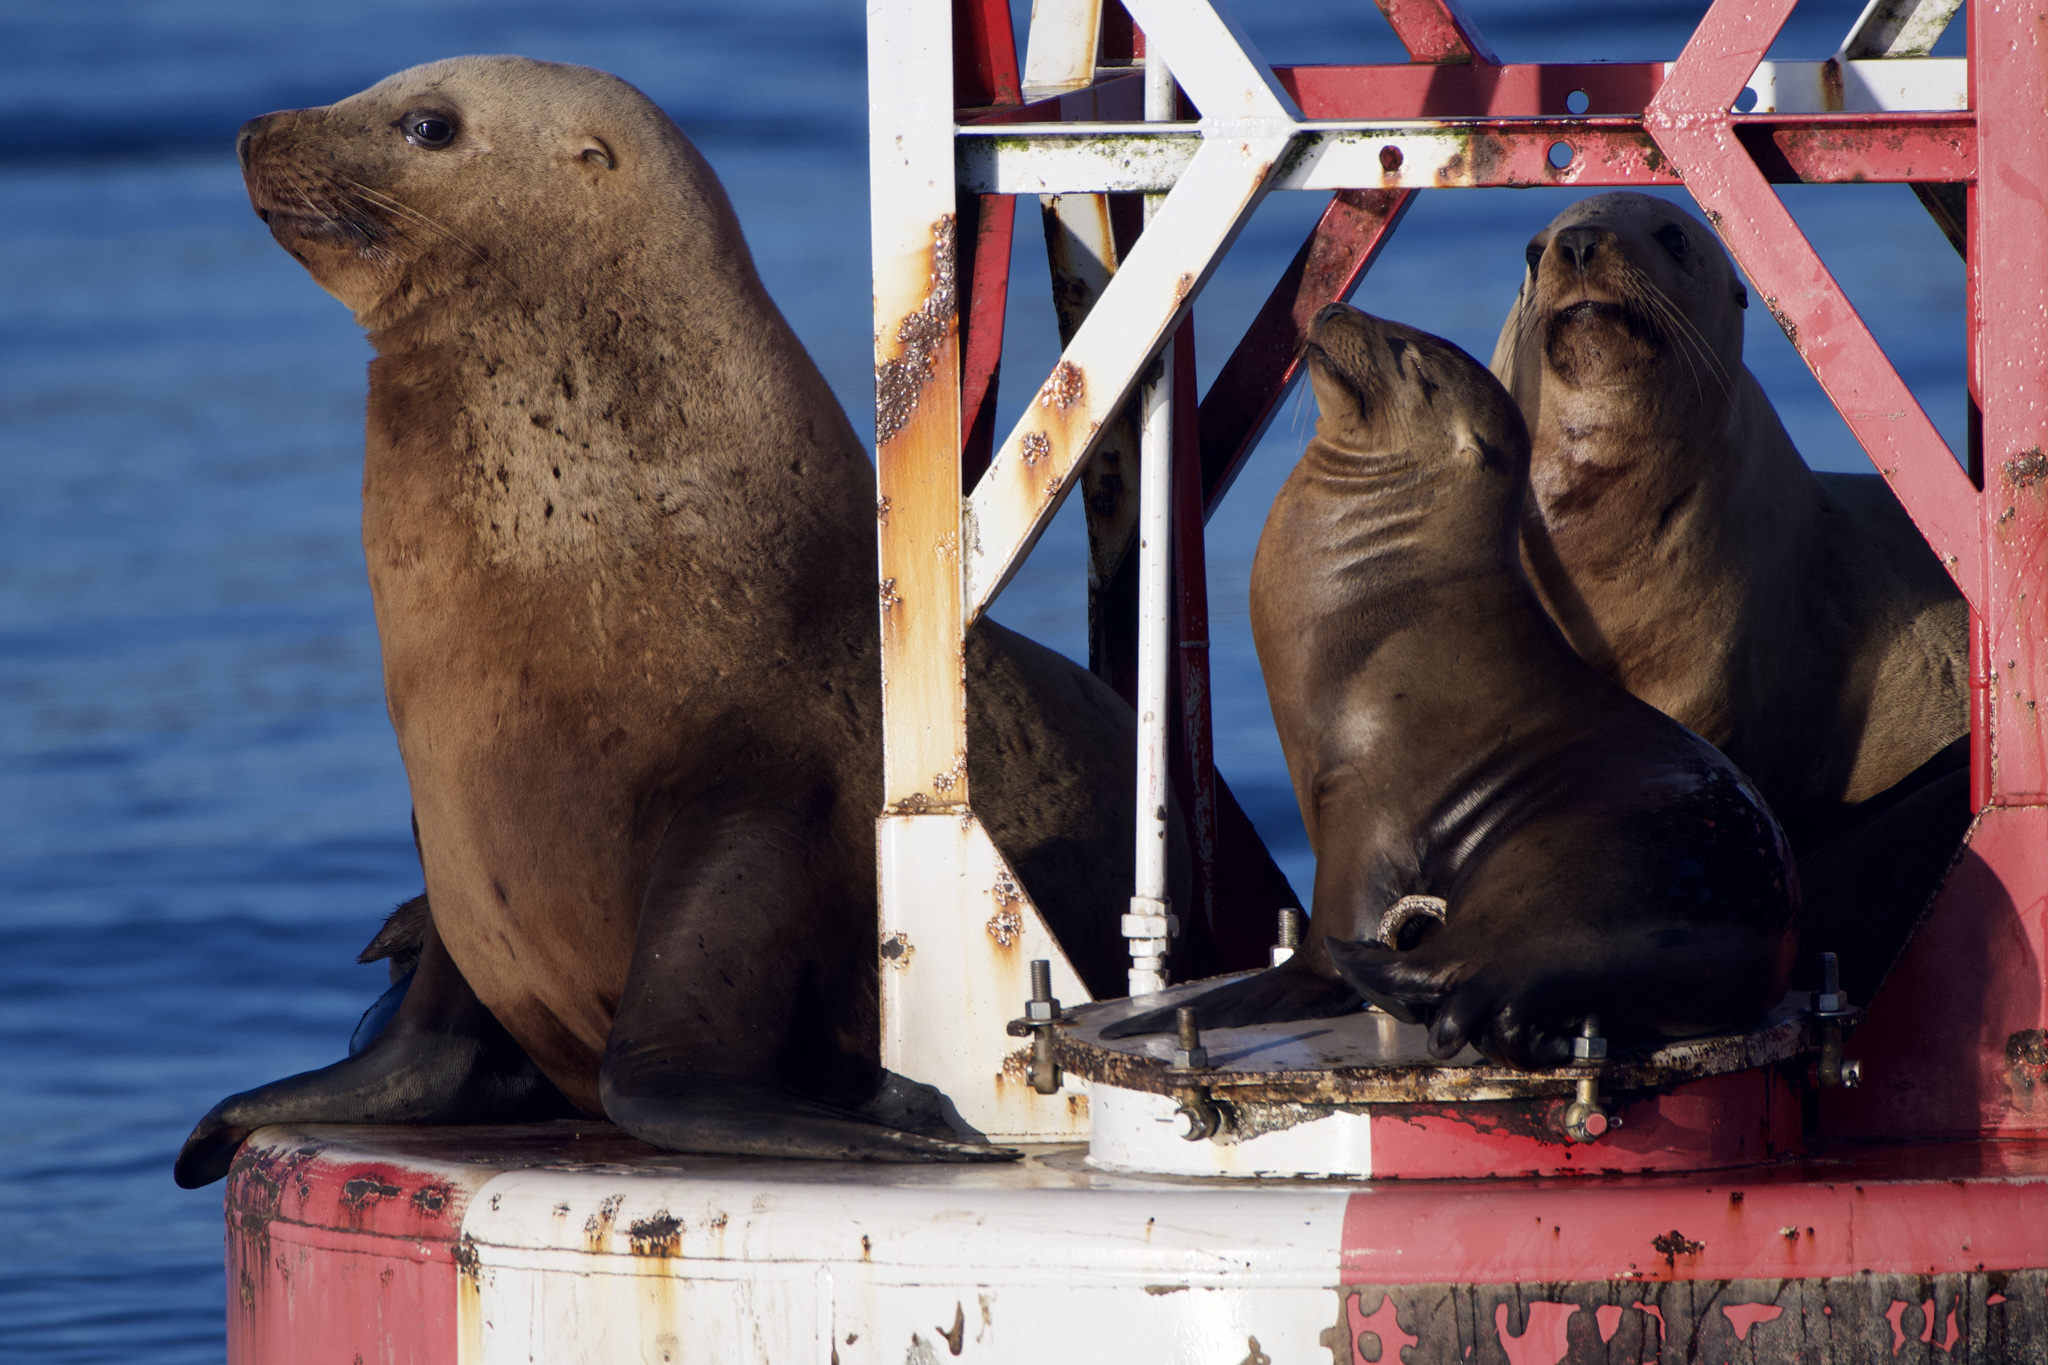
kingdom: Animalia
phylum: Chordata
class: Mammalia
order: Carnivora
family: Otariidae
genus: Eumetopias
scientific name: Eumetopias jubatus
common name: Steller sea lion
